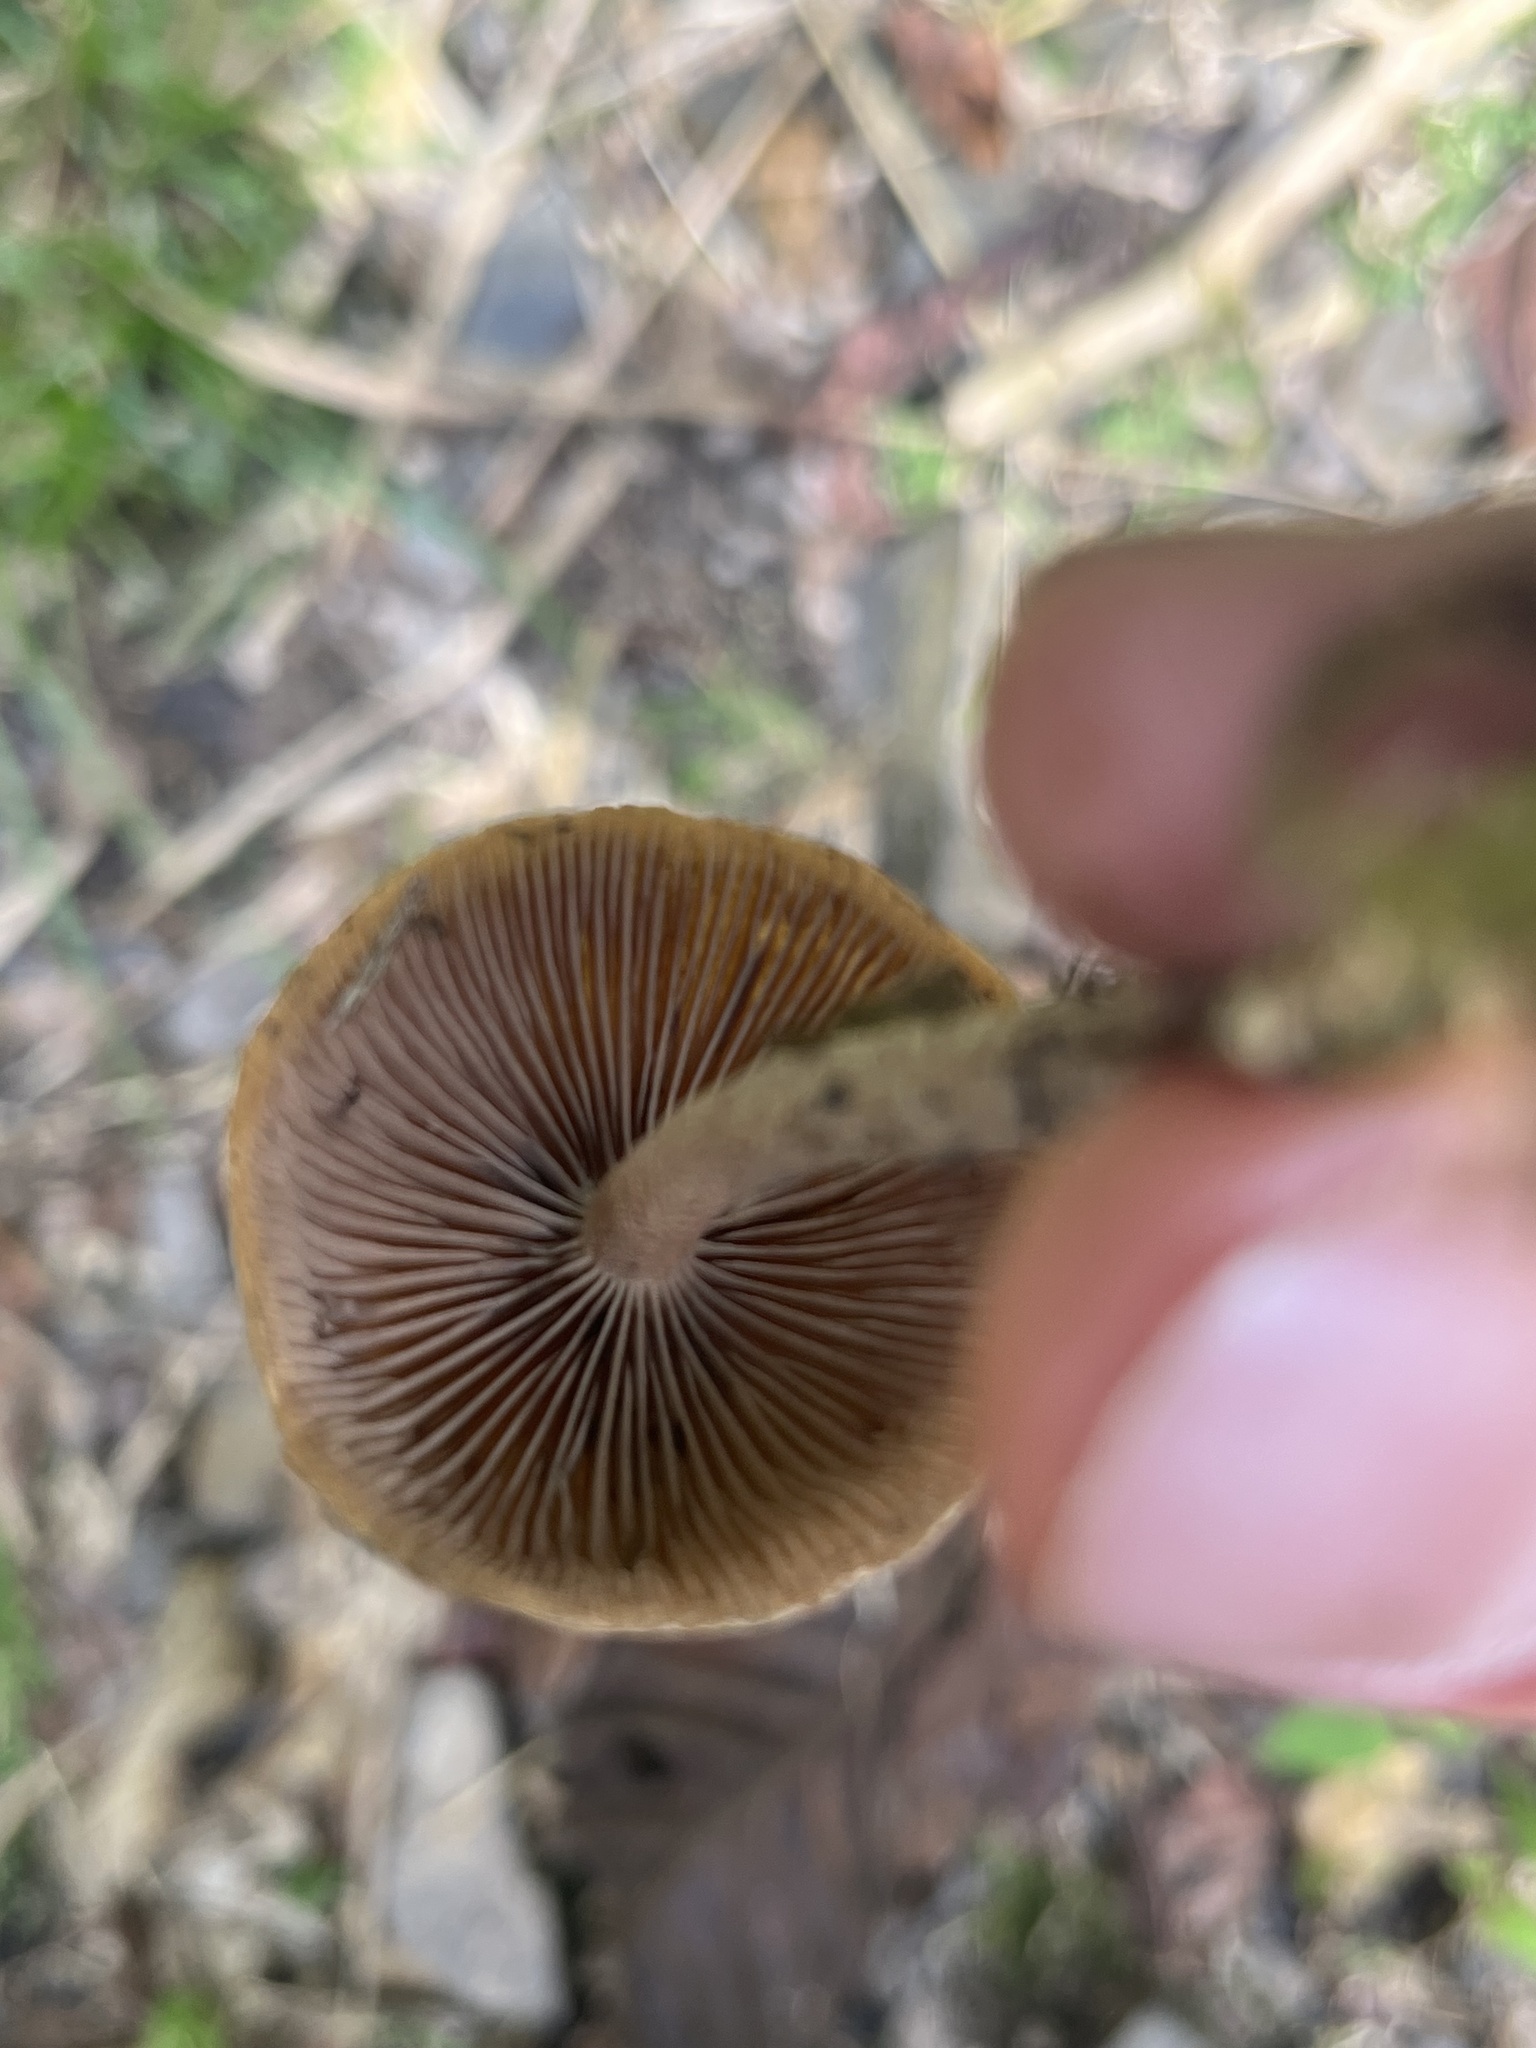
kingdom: Fungi
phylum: Basidiomycota
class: Agaricomycetes
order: Agaricales
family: Hymenogastraceae
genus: Psilocybe
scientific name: Psilocybe zapotecorum
